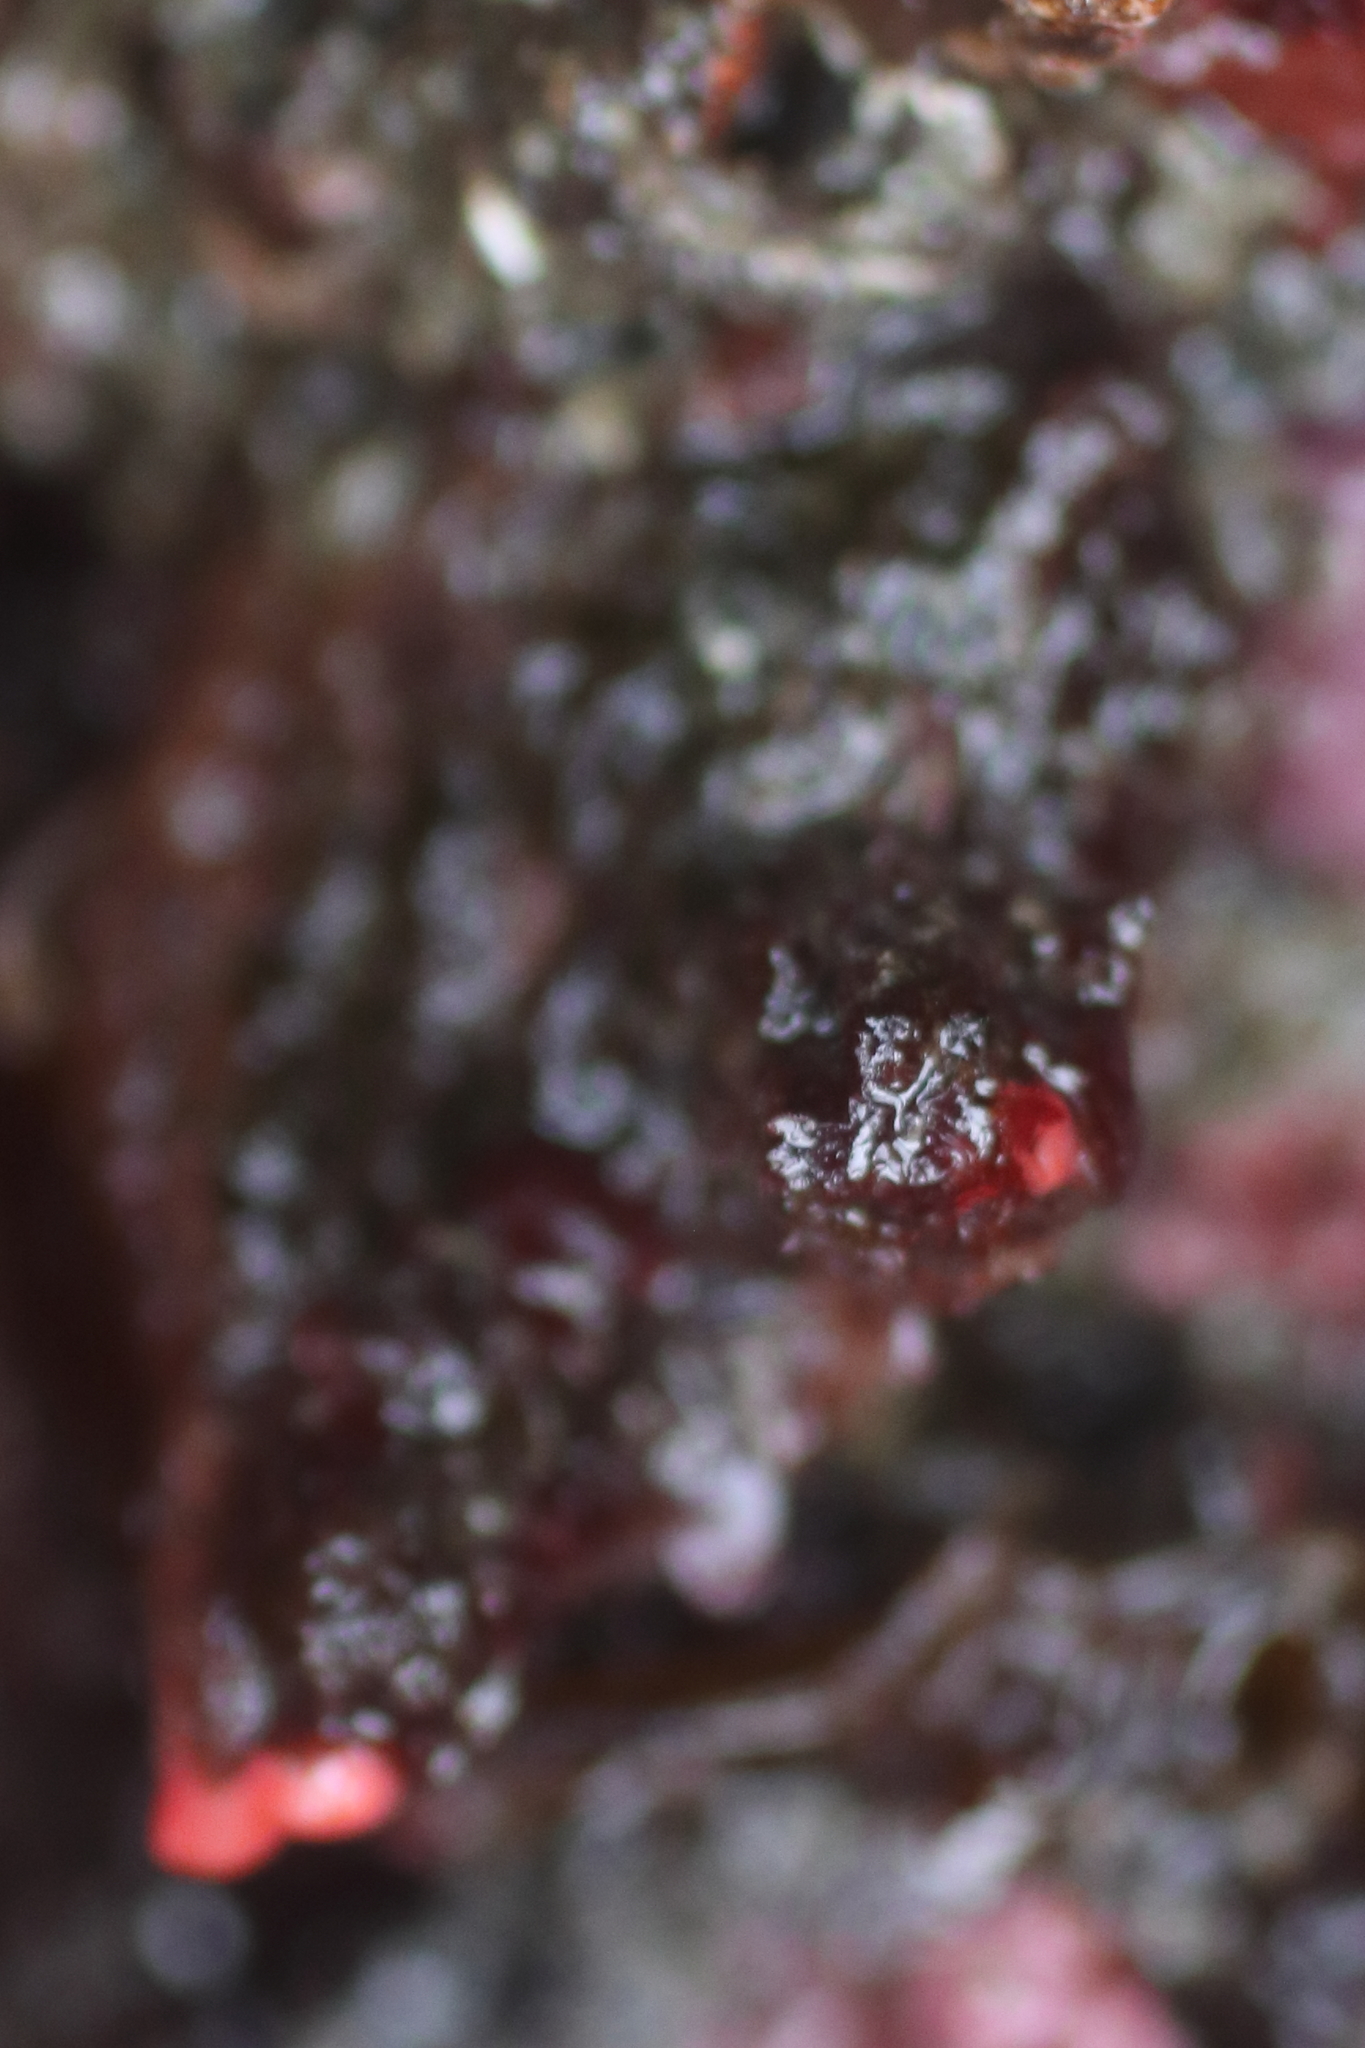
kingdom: Animalia
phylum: Chordata
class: Ascidiacea
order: Stolidobranchia
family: Pyuridae
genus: Pyura
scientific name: Pyura haustor
